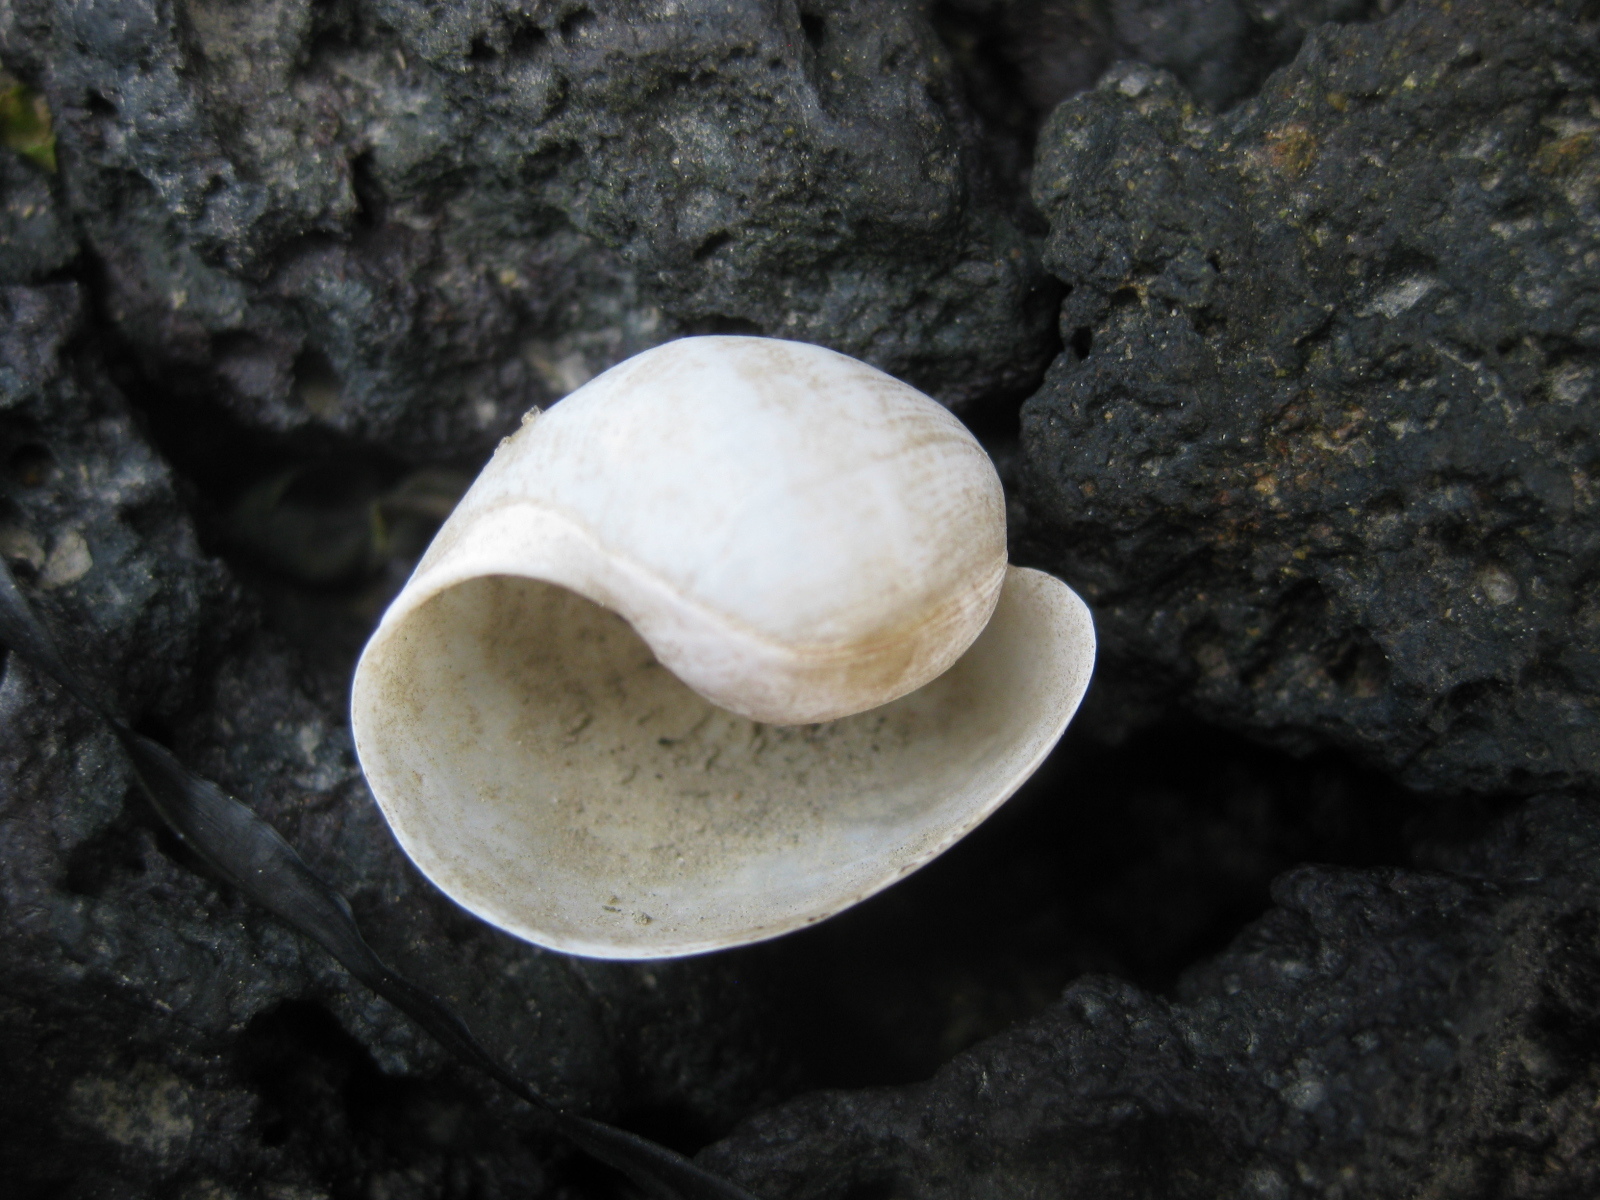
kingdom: Animalia
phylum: Mollusca
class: Gastropoda
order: Cephalaspidea
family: Haminoeidae
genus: Papawera
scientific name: Papawera zelandiae
